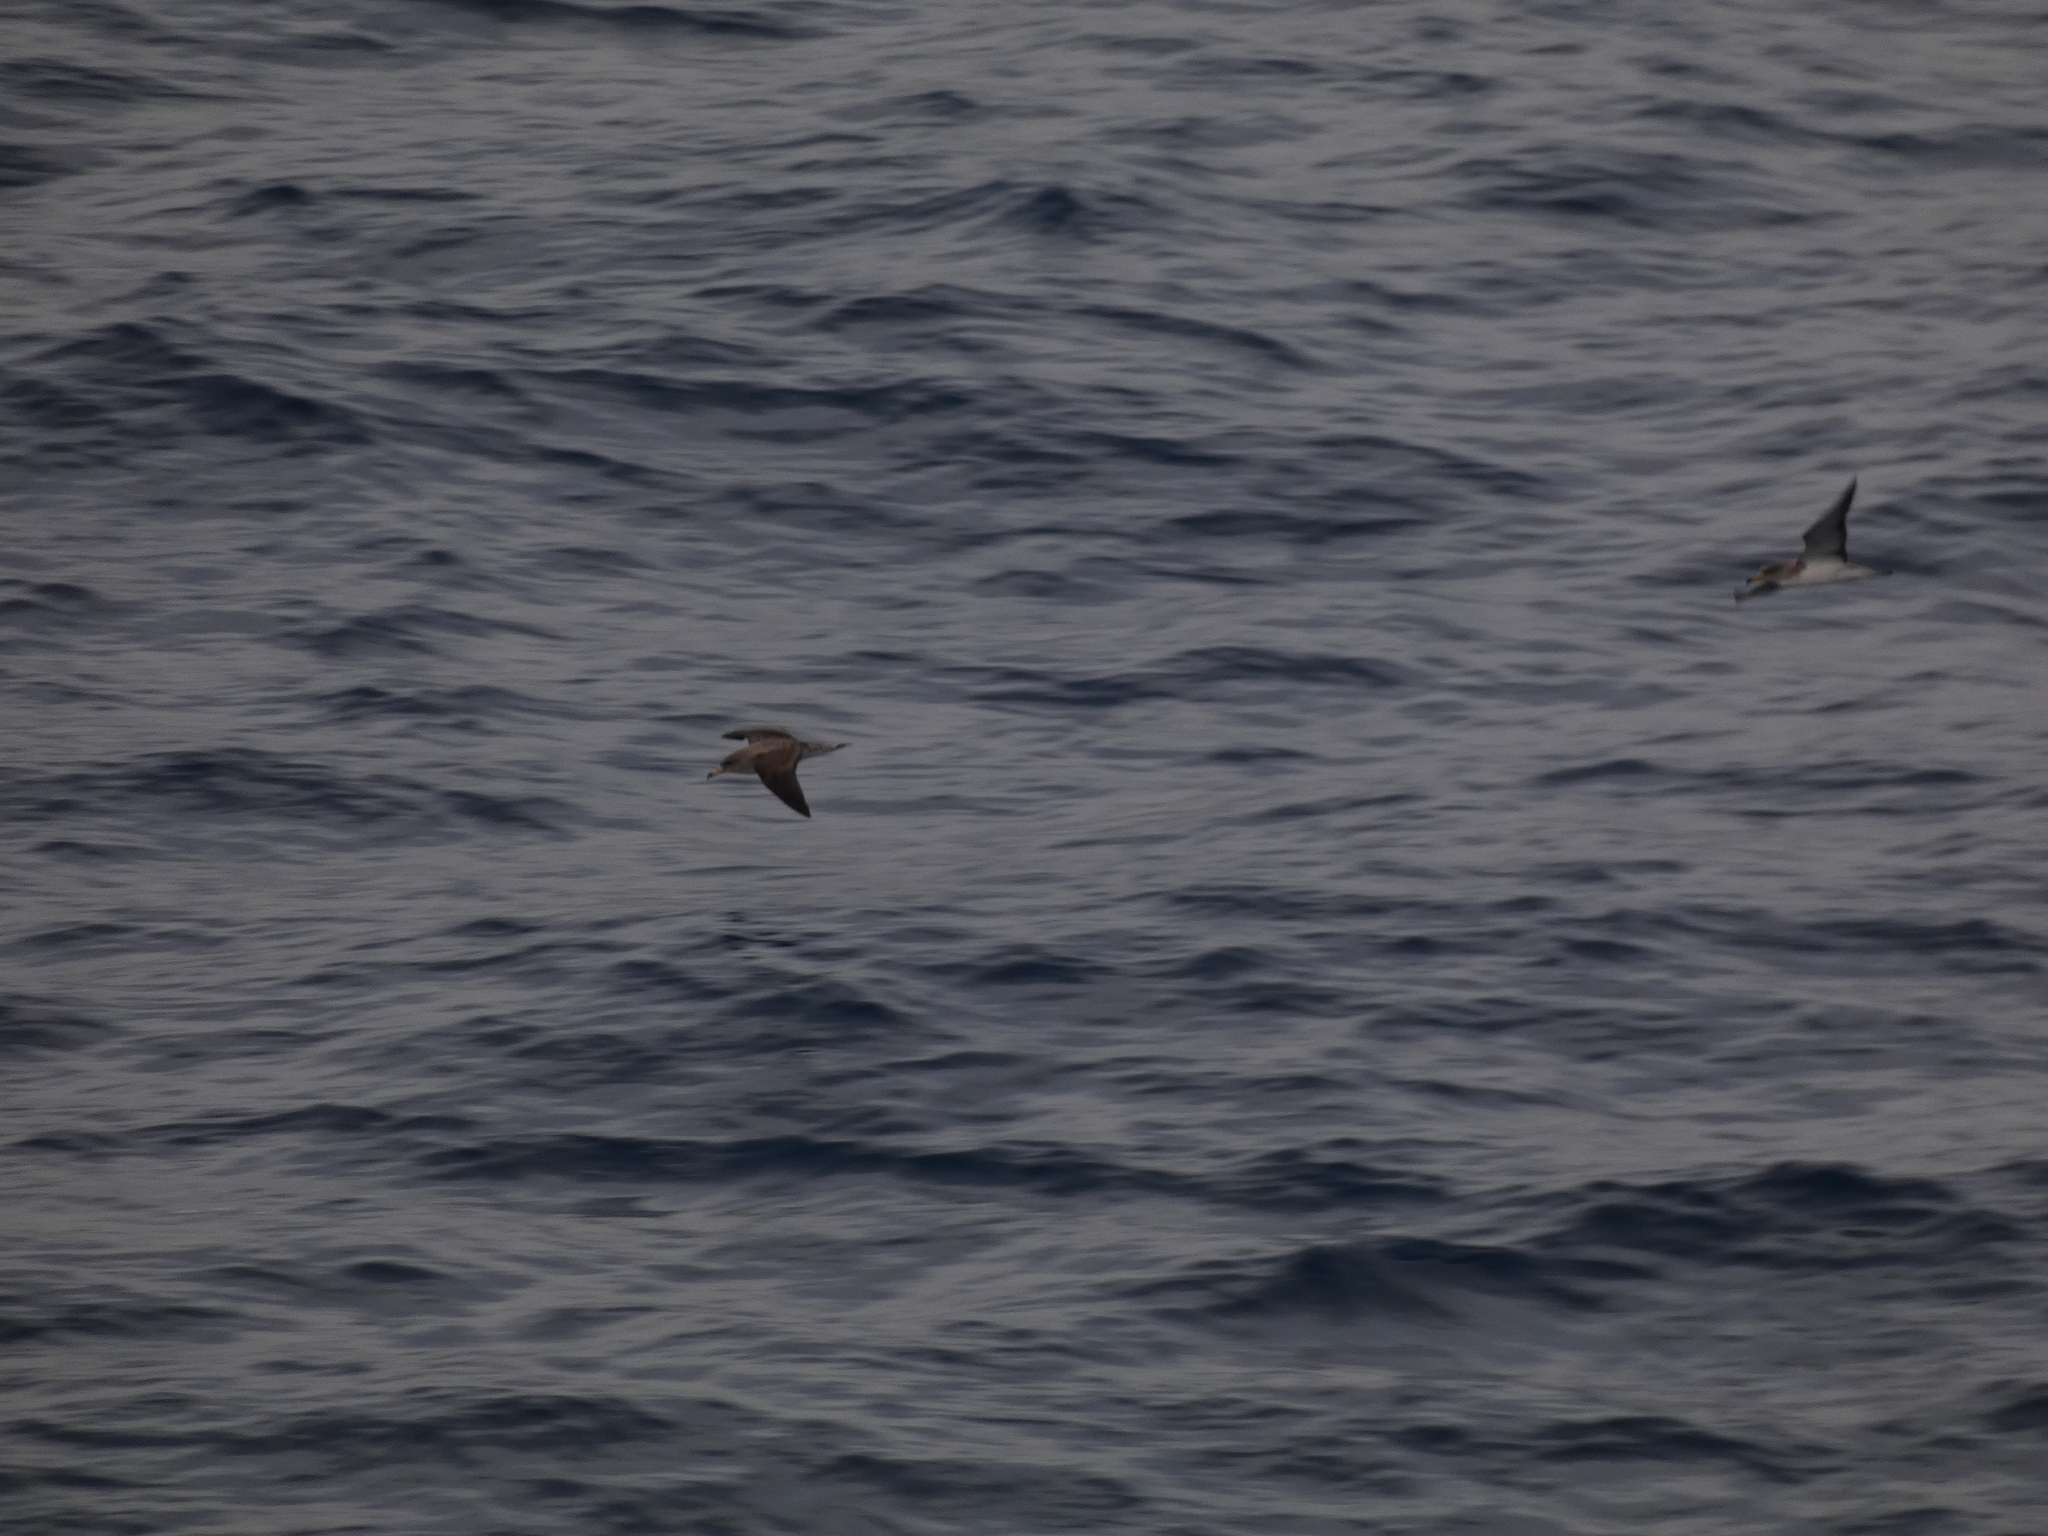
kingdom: Animalia
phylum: Chordata
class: Aves
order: Procellariiformes
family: Procellariidae
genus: Calonectris
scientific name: Calonectris diomedea
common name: Cory's shearwater
